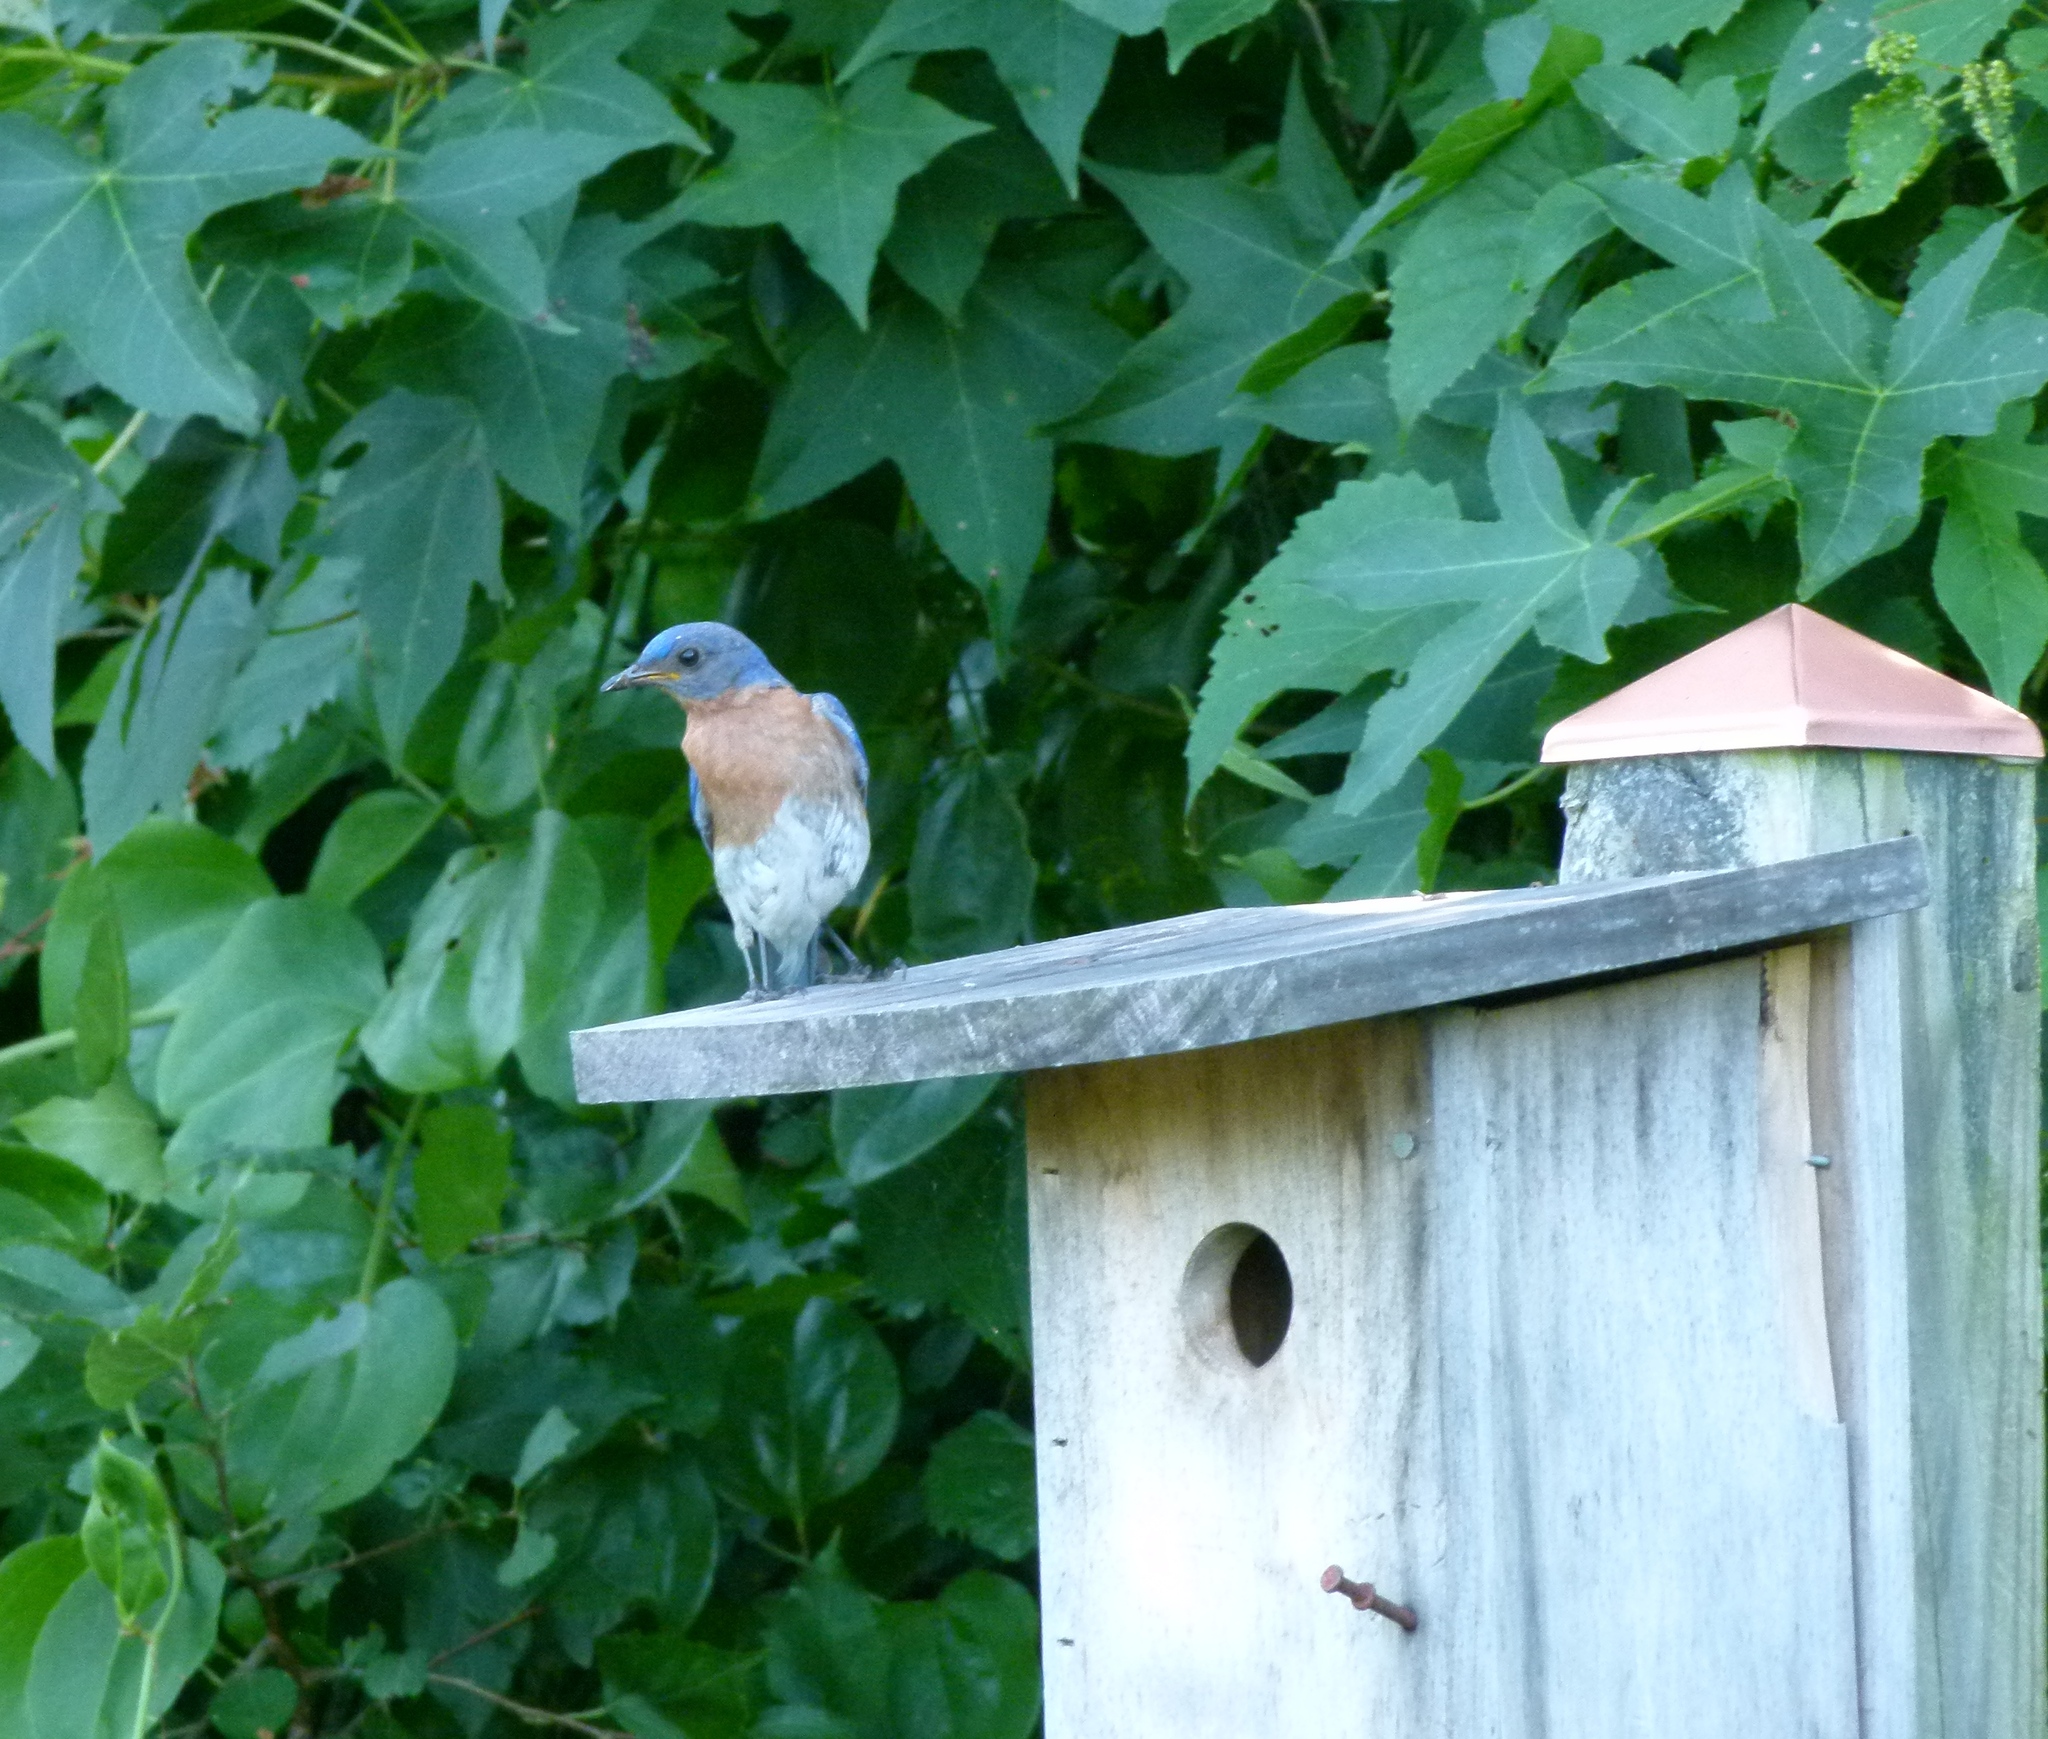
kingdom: Animalia
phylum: Chordata
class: Aves
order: Passeriformes
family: Turdidae
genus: Sialia
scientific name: Sialia sialis
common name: Eastern bluebird
